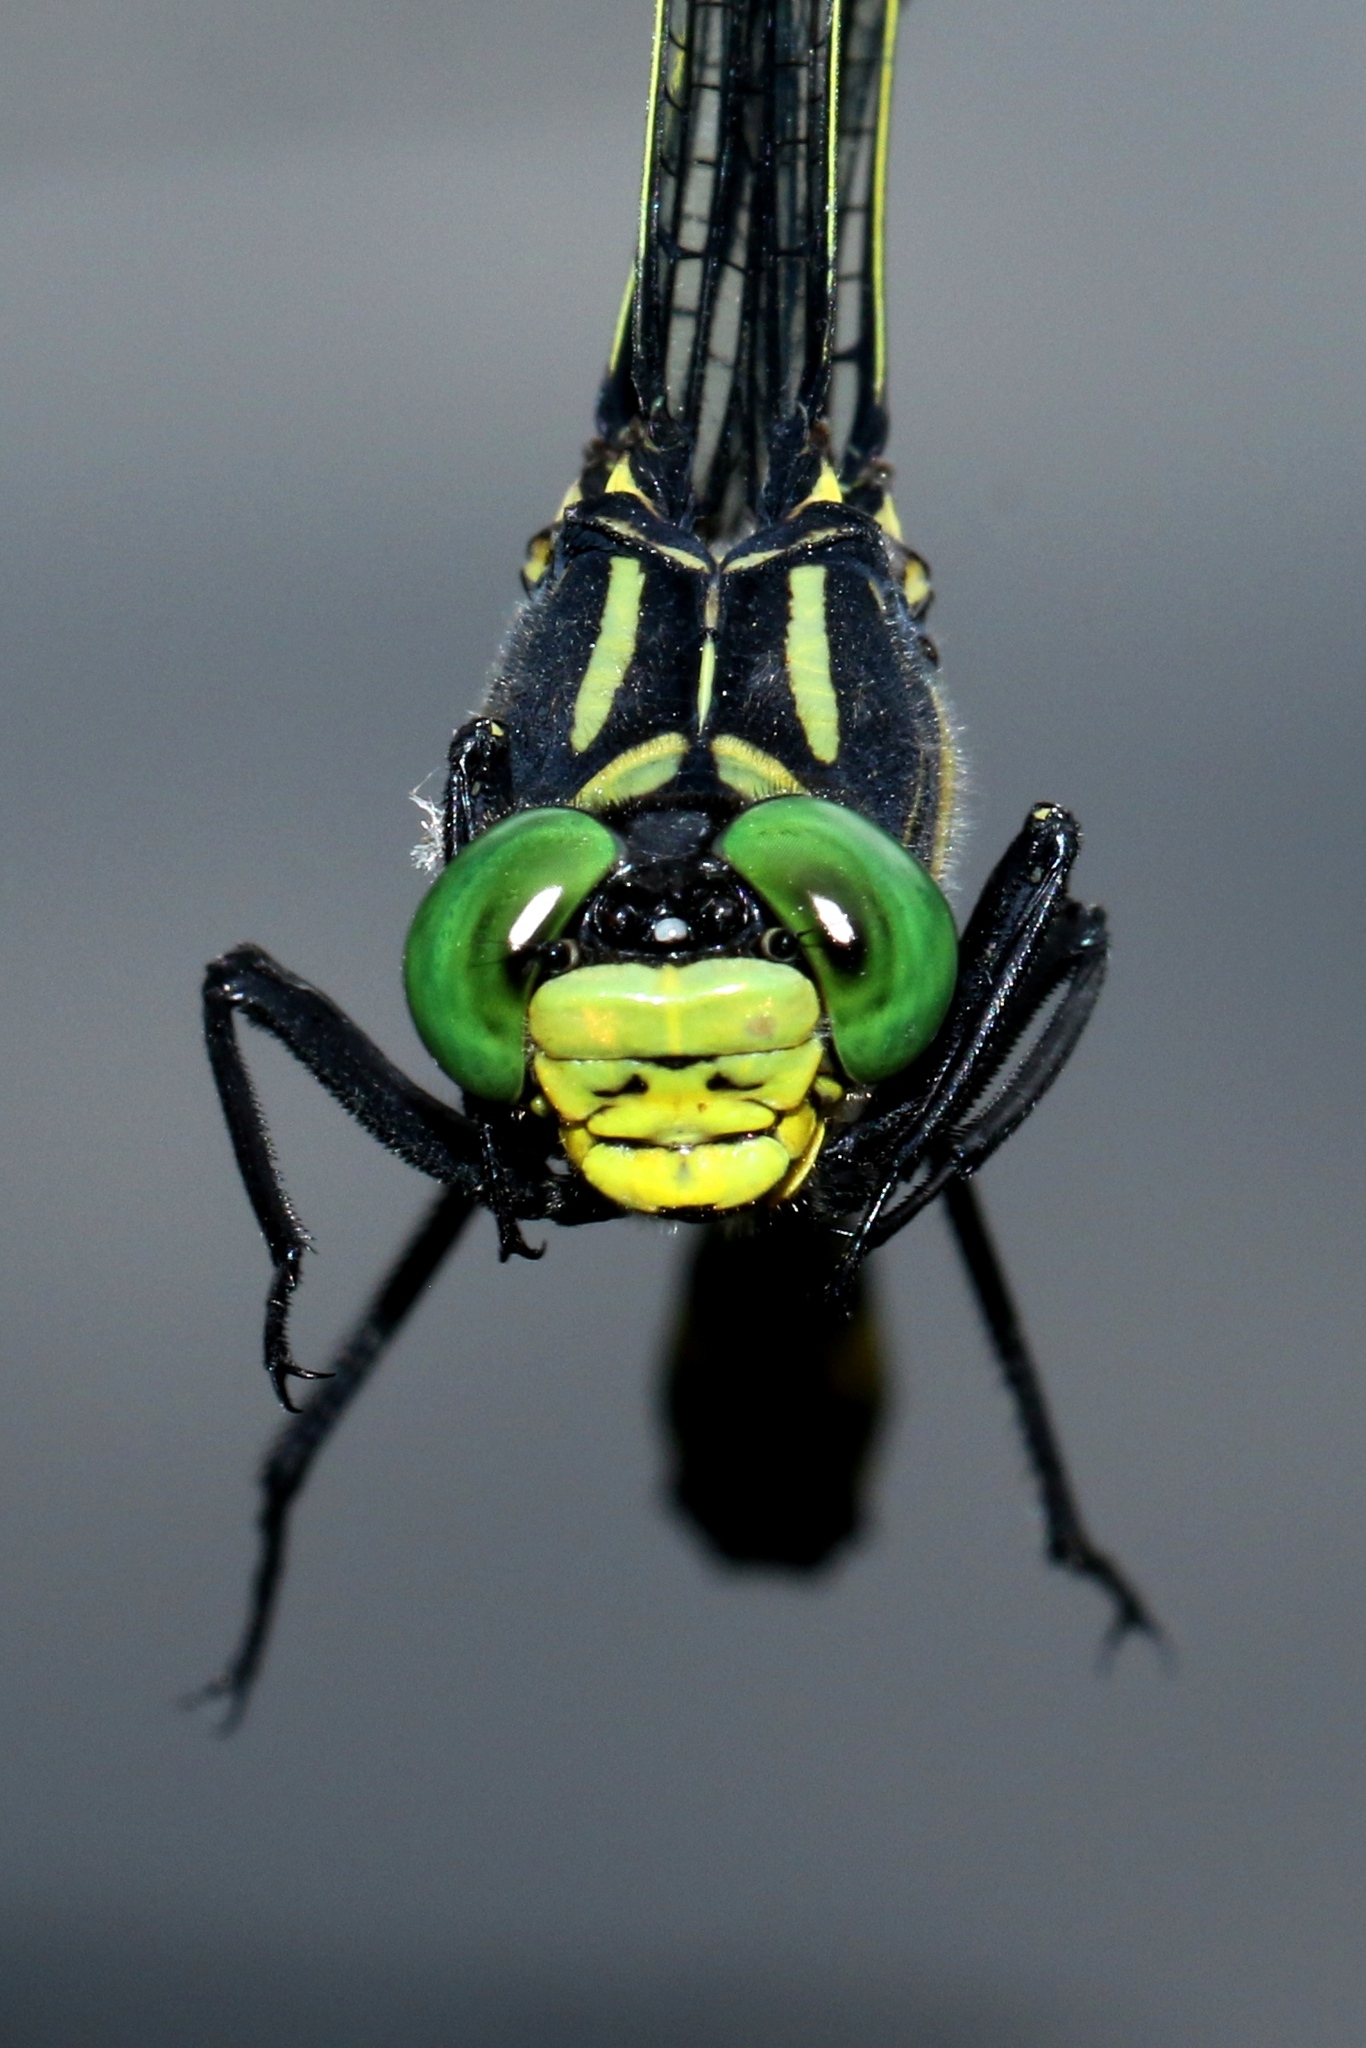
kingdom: Animalia
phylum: Arthropoda
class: Insecta
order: Odonata
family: Gomphidae
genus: Hagenius
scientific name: Hagenius brevistylus
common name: Dragonhunter
